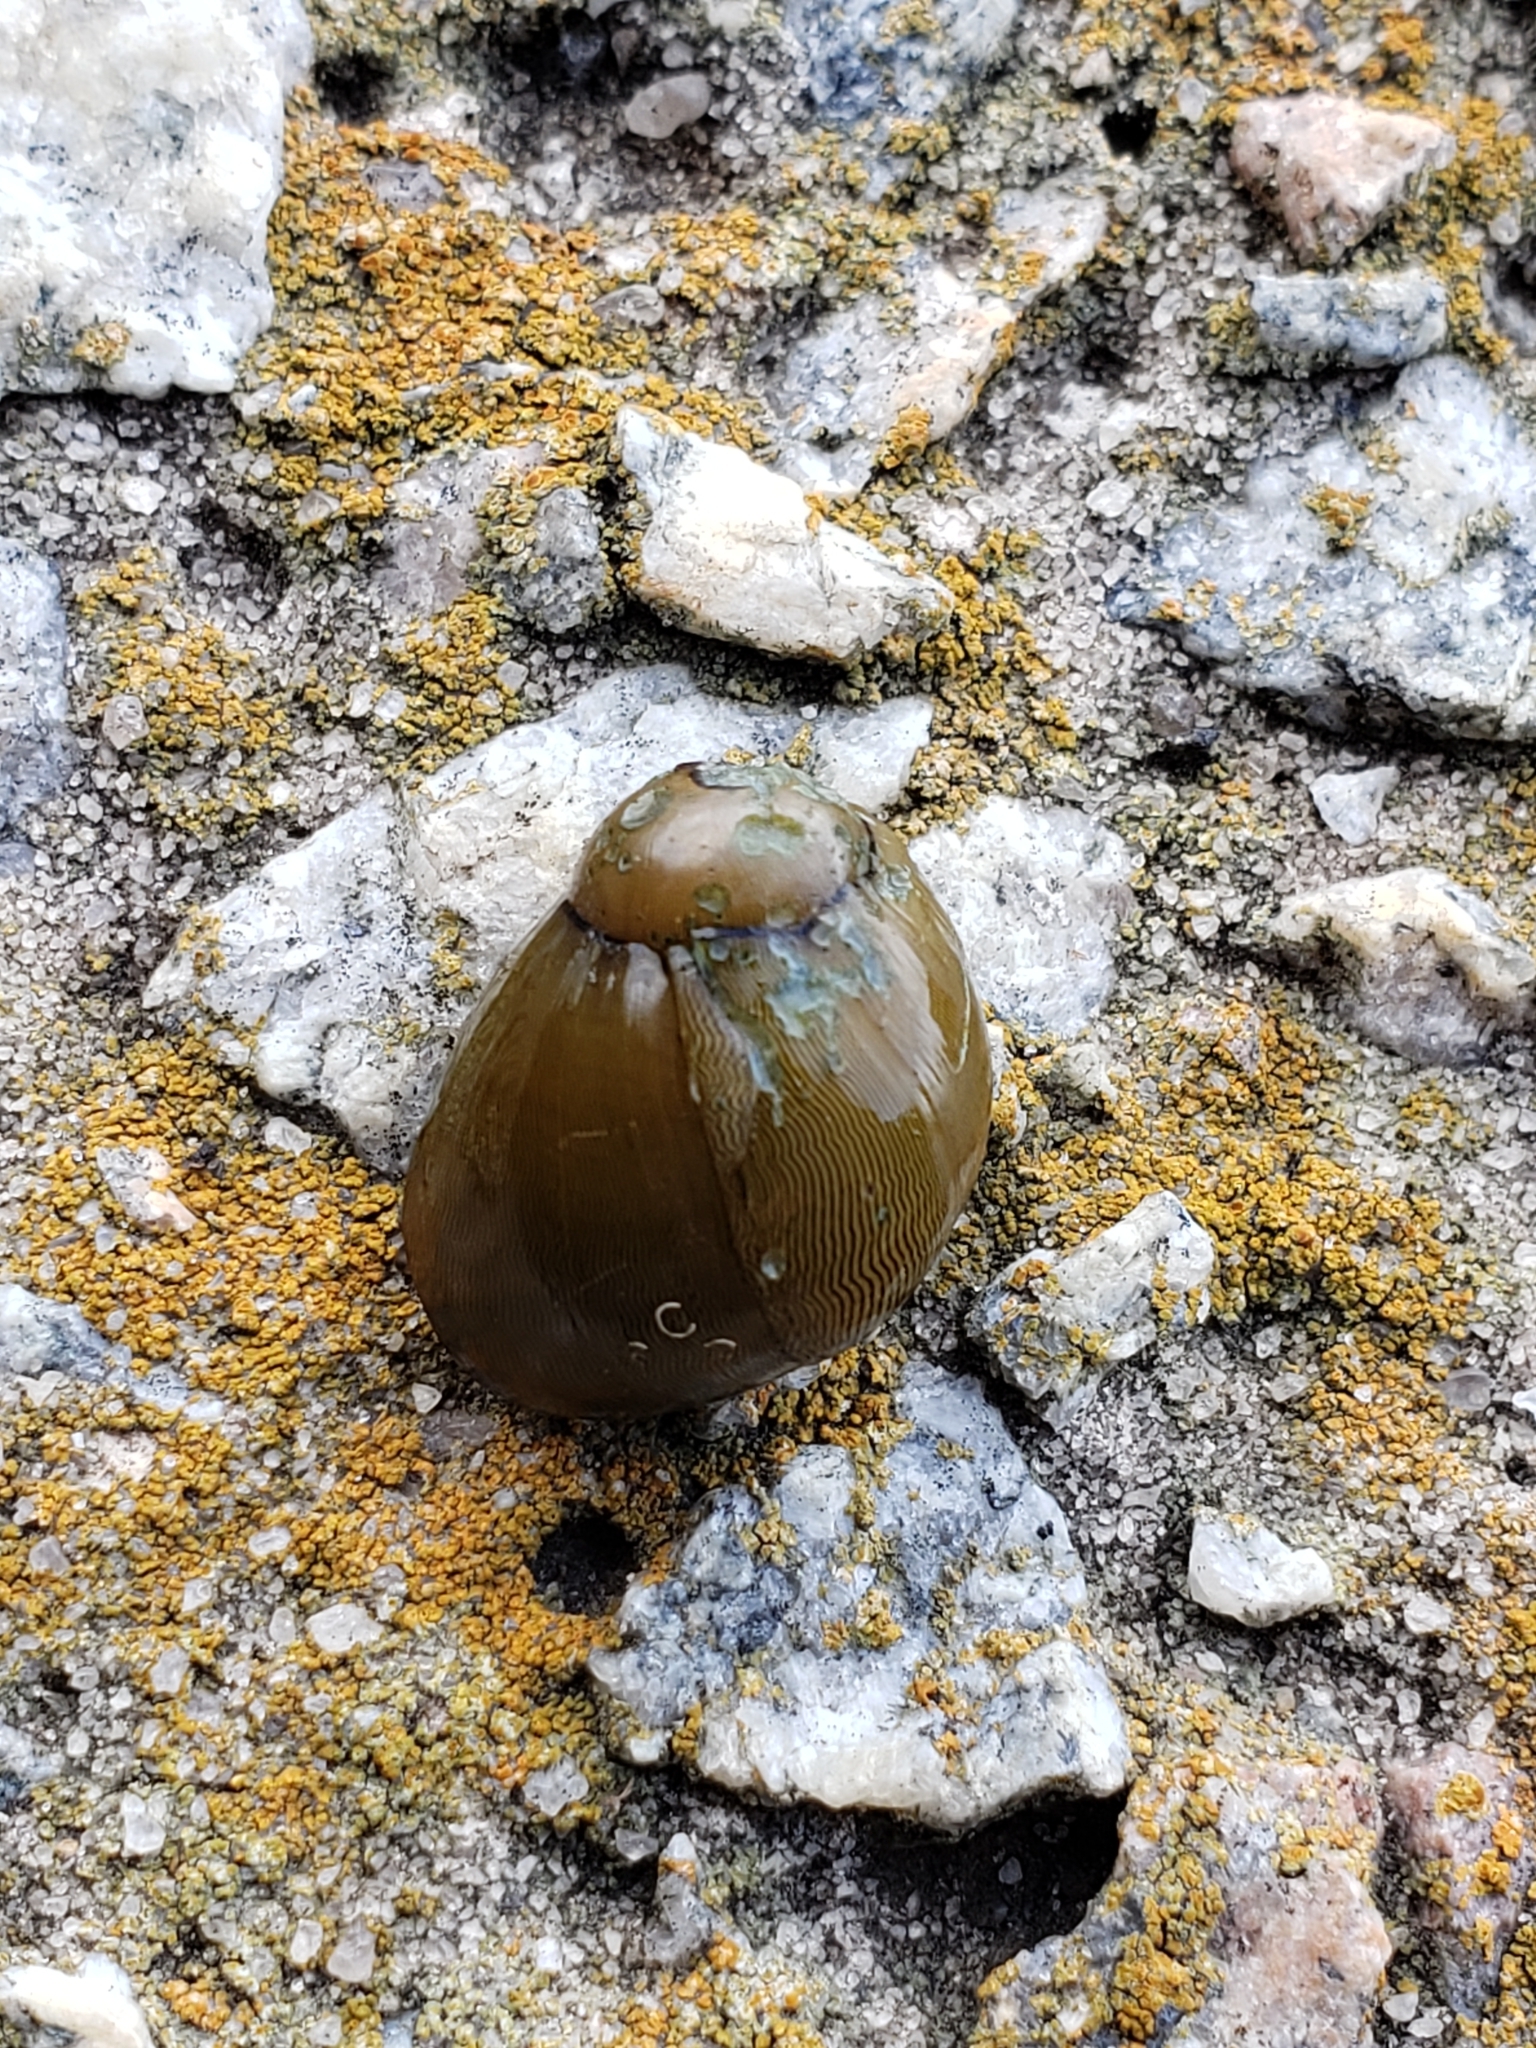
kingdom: Animalia
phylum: Mollusca
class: Gastropoda
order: Cycloneritida
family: Neritidae
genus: Vitta
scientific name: Vitta usnea
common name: Olive nerite
